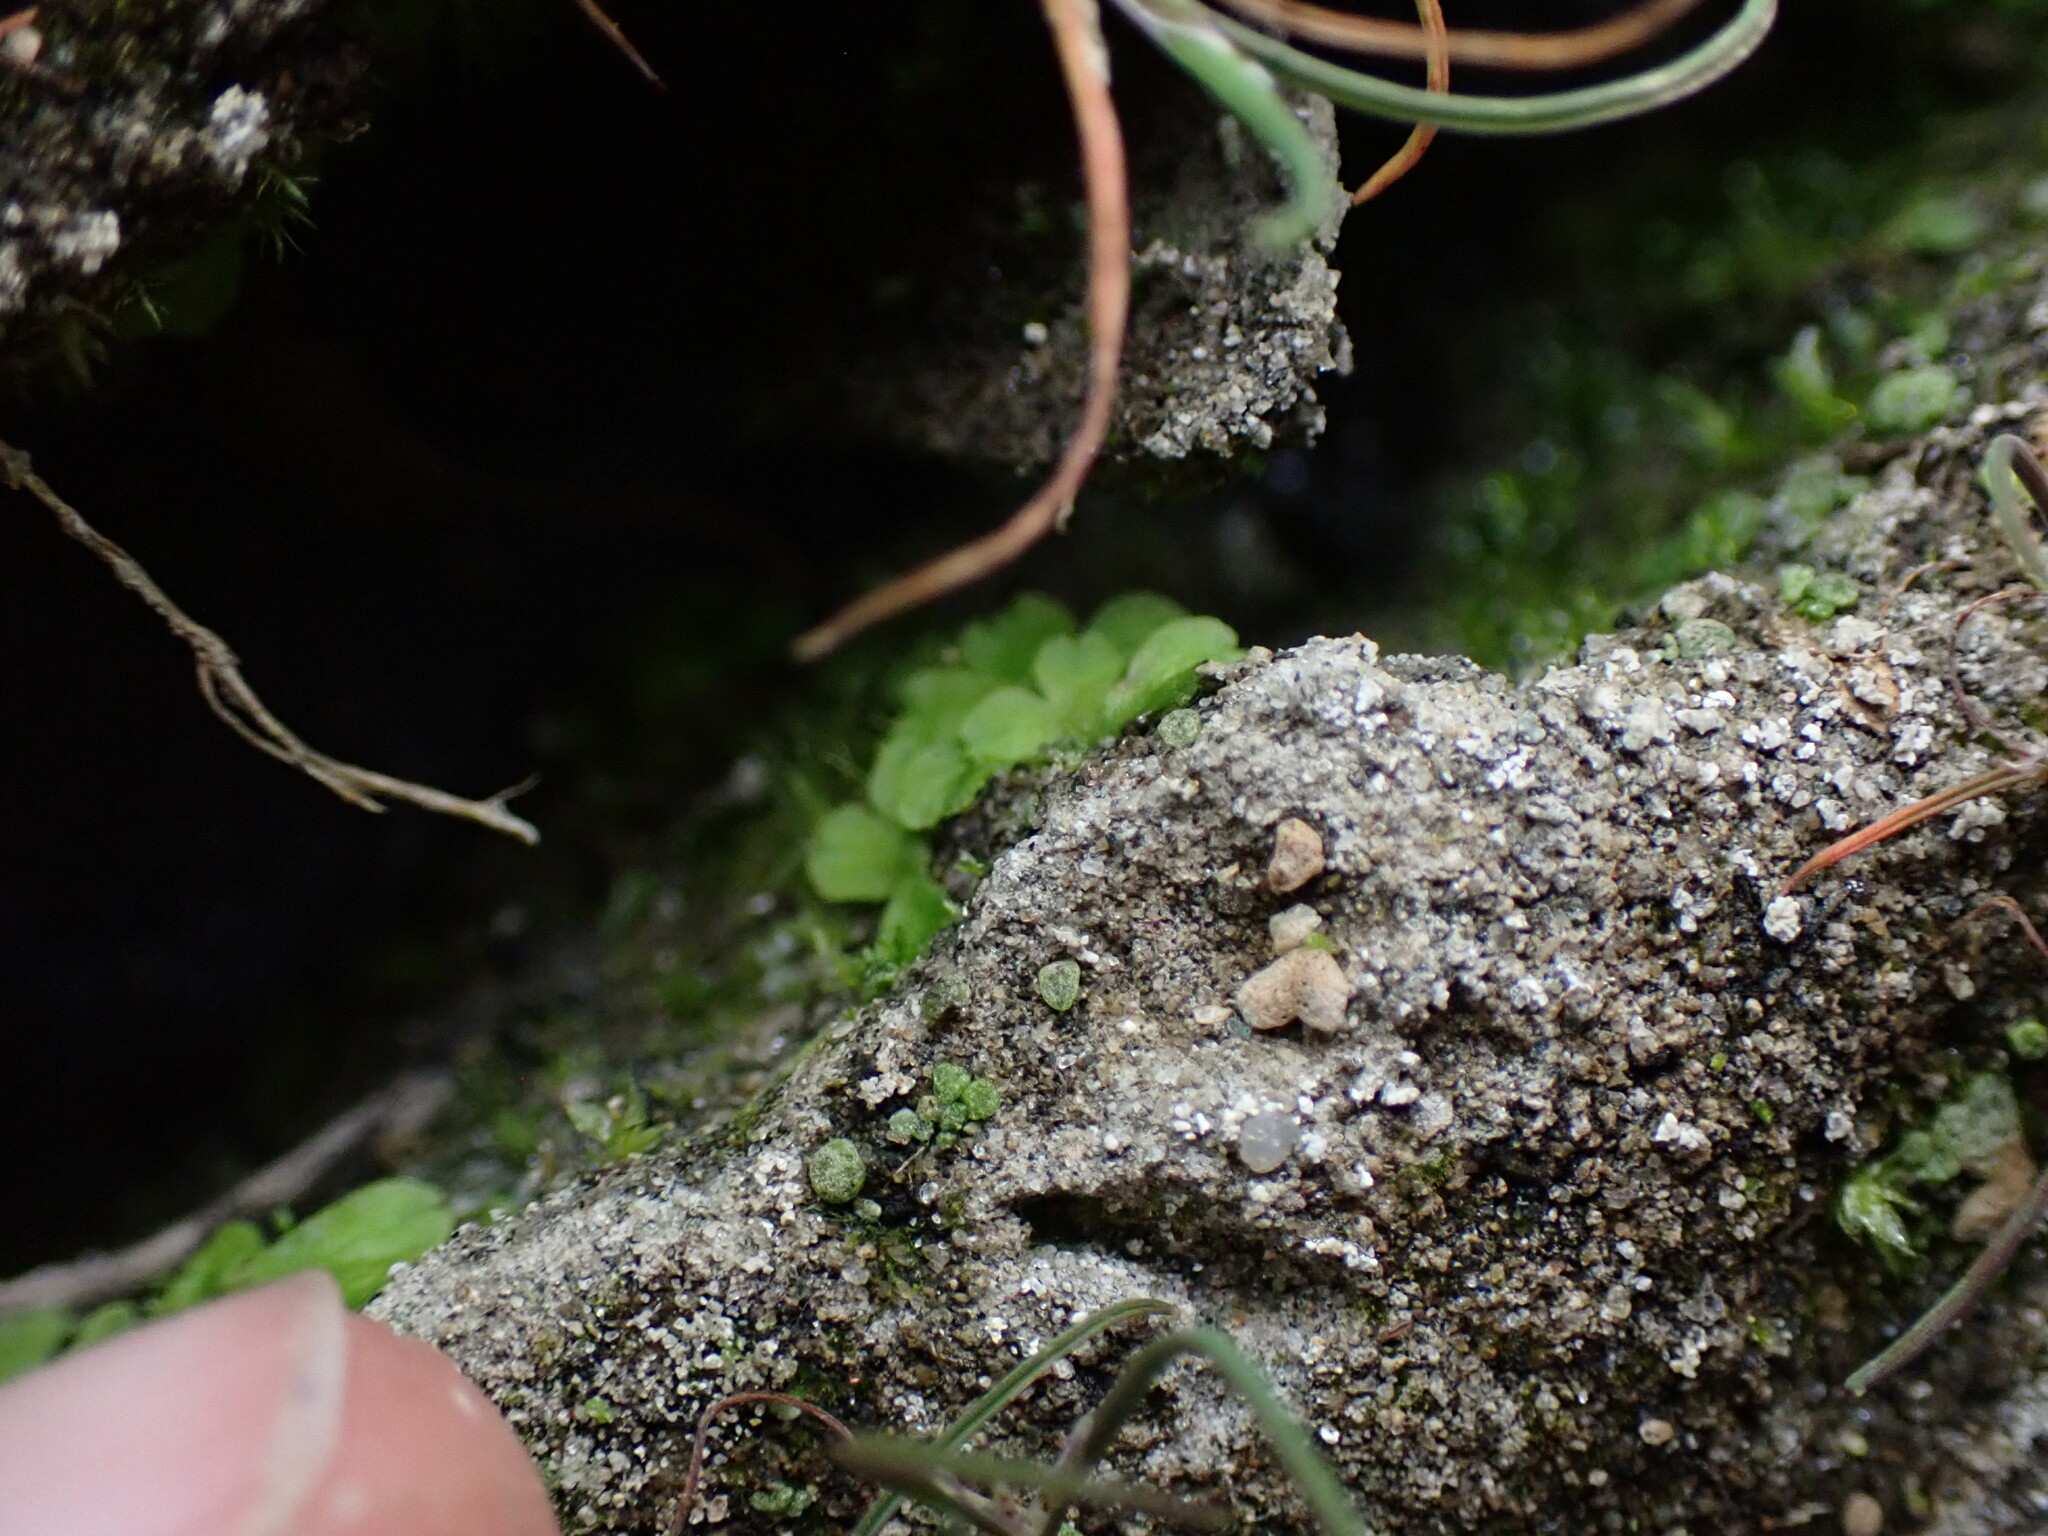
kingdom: Plantae
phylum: Marchantiophyta
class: Marchantiopsida
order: Marchantiales
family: Ricciaceae
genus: Ricciocarpos
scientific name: Ricciocarpos natans
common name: Purple-fringed liverwort
